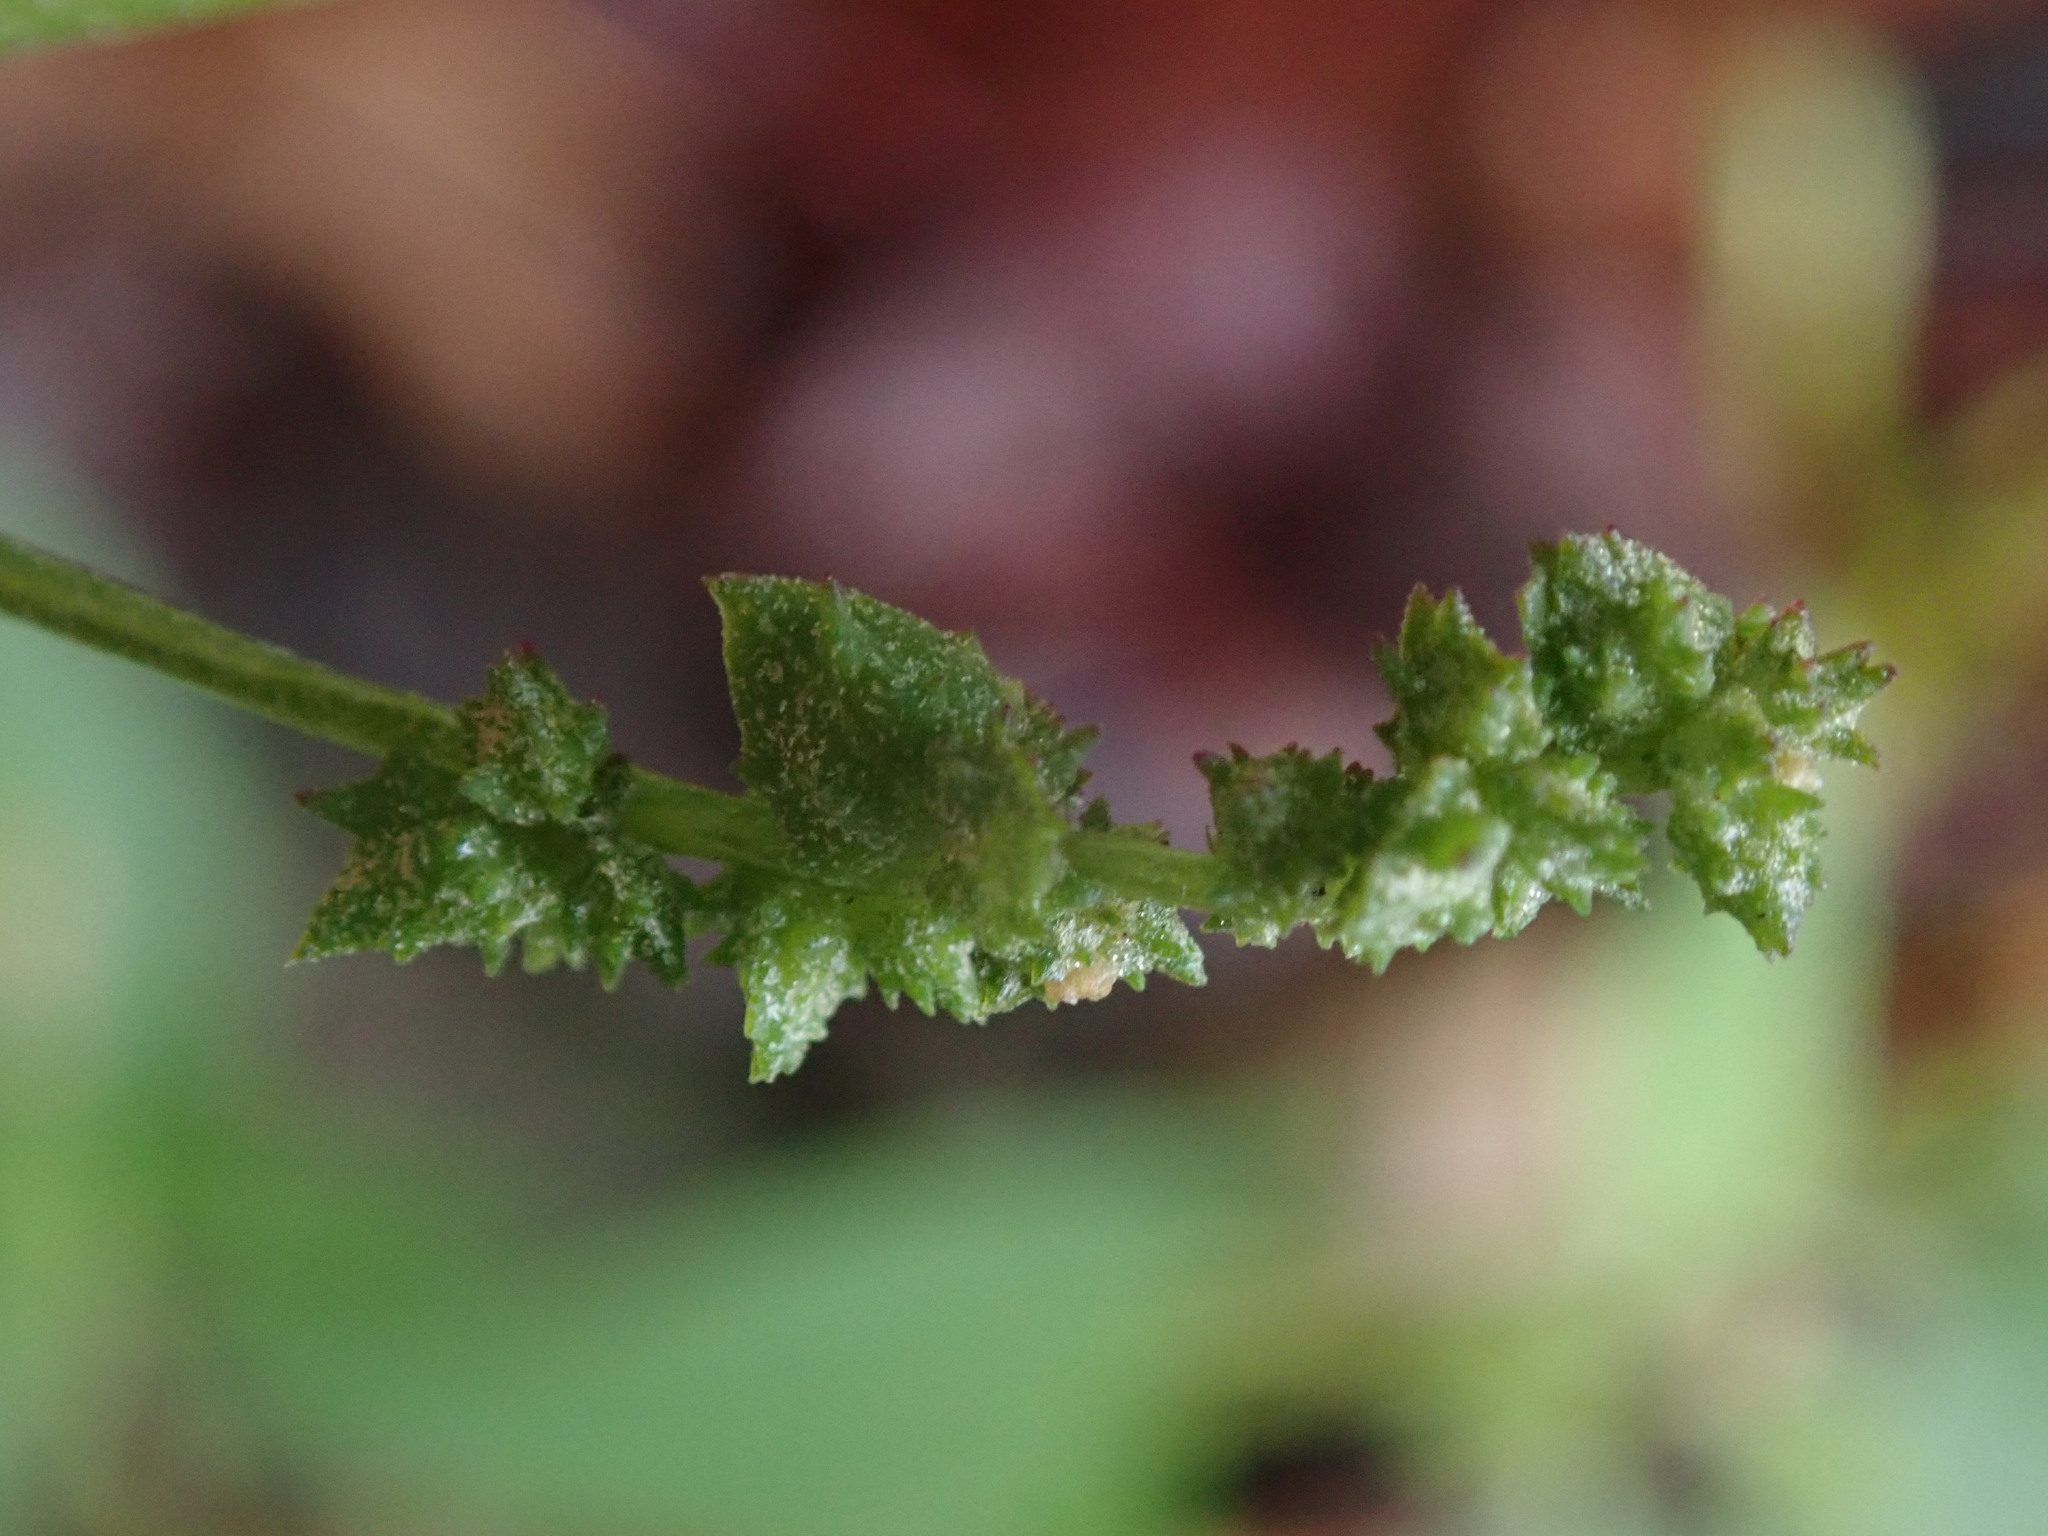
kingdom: Plantae
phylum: Tracheophyta
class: Magnoliopsida
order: Caryophyllales
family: Amaranthaceae
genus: Atriplex
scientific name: Atriplex prostrata
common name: Spear-leaved orache
